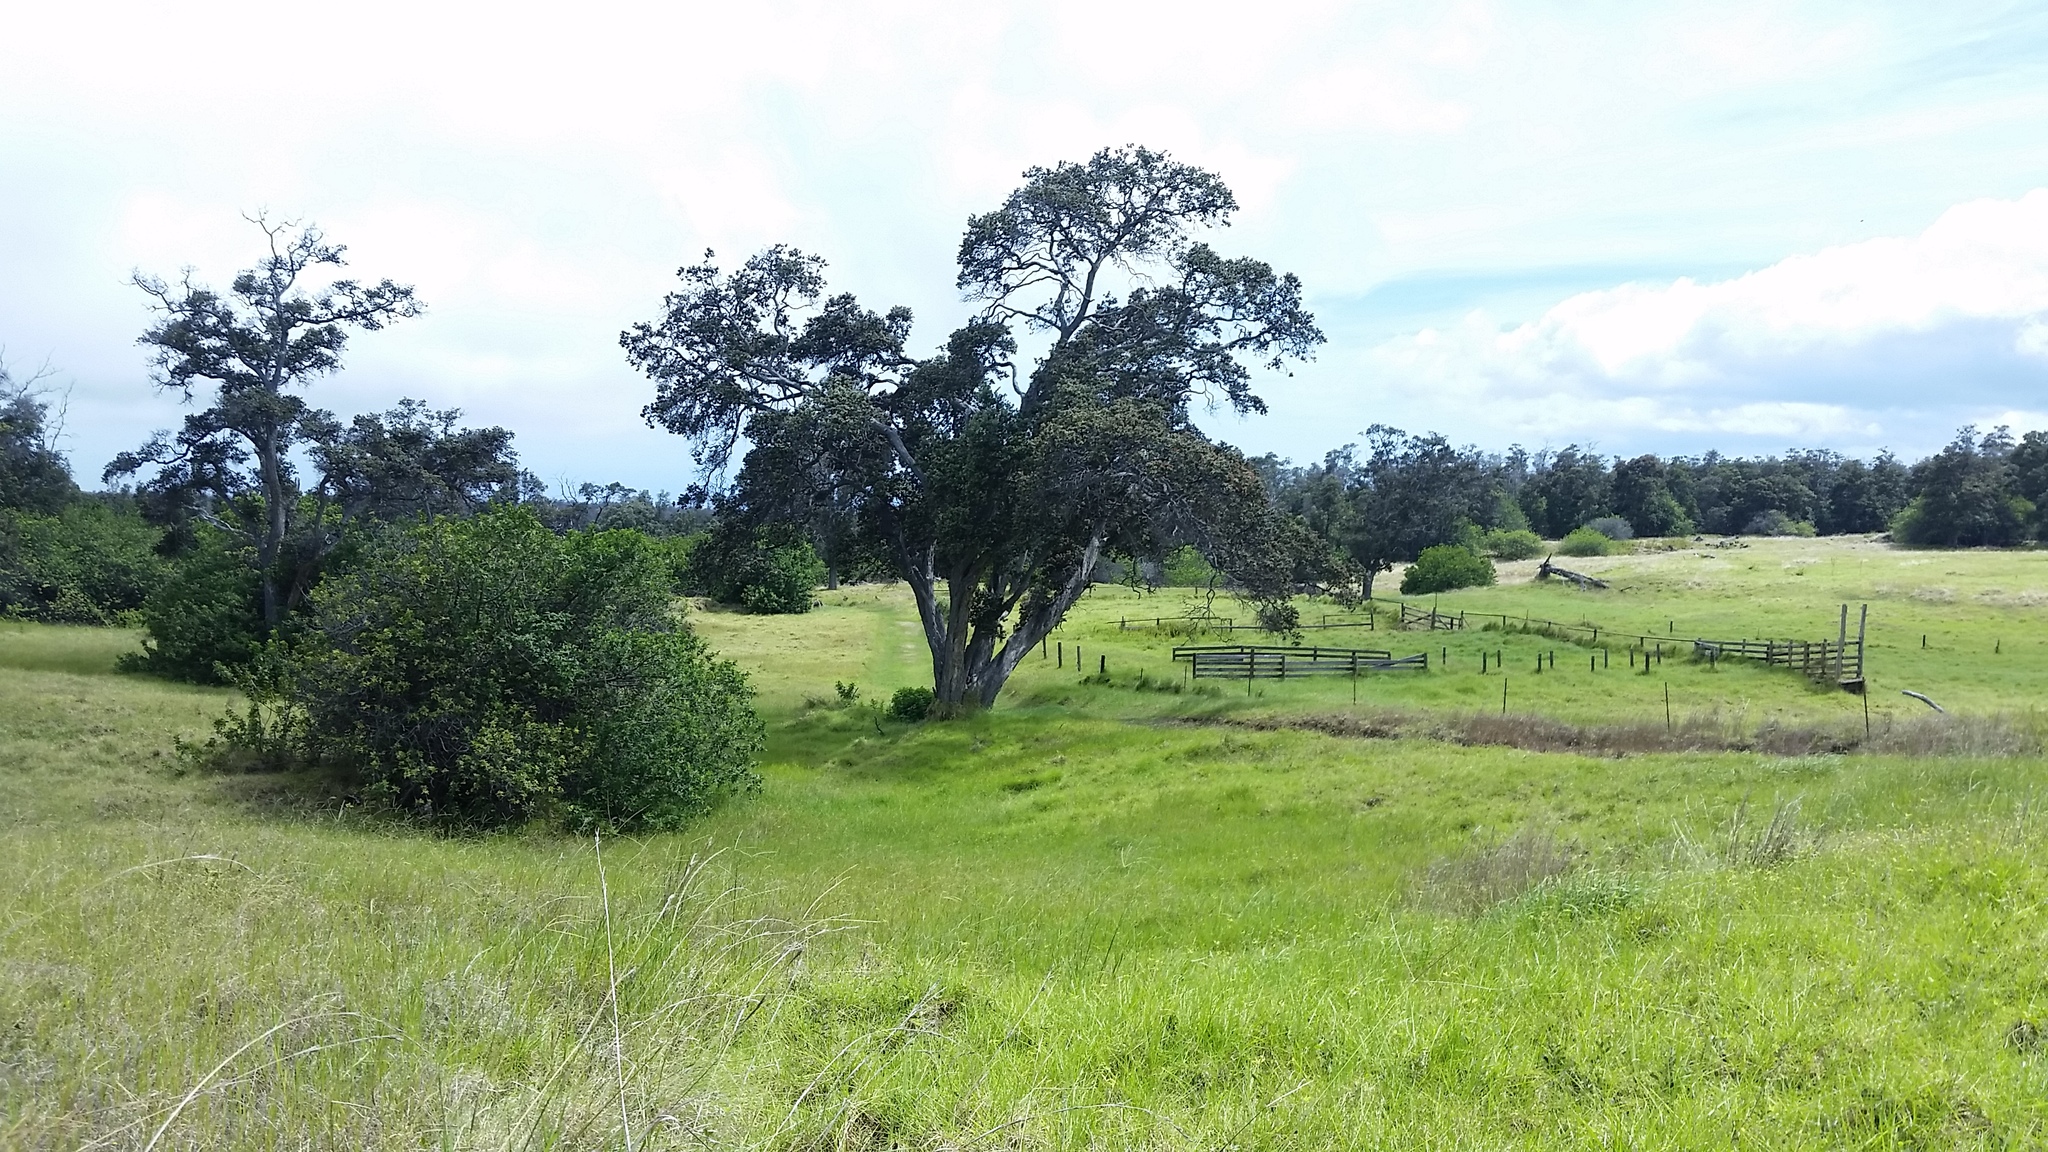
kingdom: Plantae
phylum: Tracheophyta
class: Magnoliopsida
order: Myrtales
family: Myrtaceae
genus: Metrosideros
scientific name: Metrosideros polymorpha
